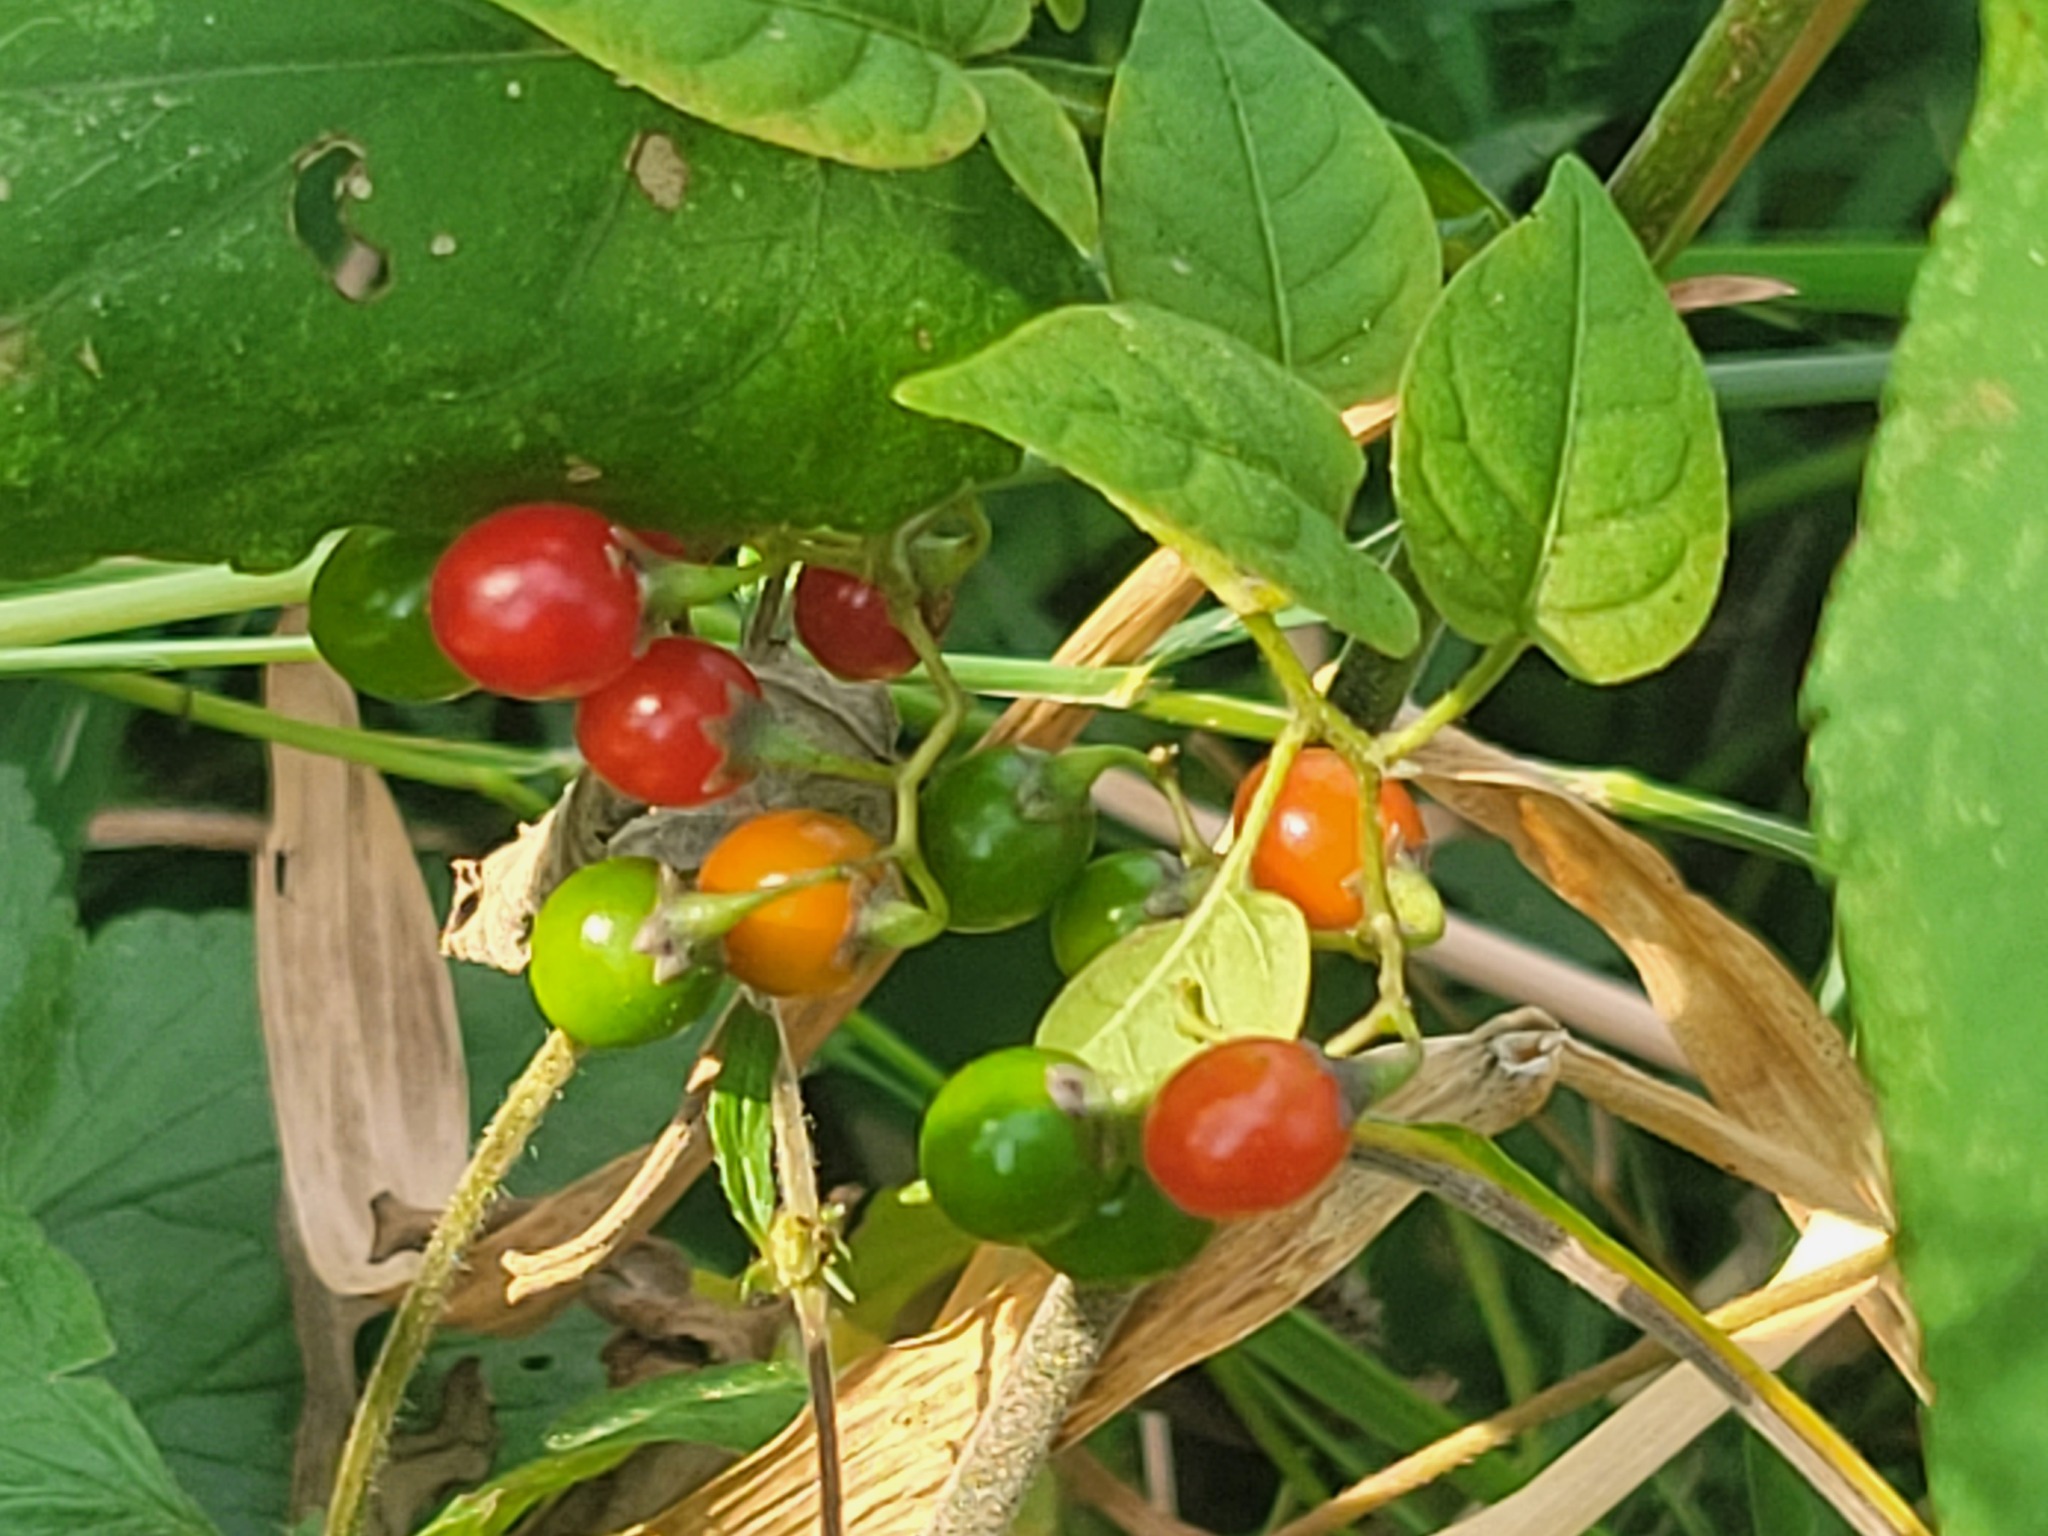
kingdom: Plantae
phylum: Tracheophyta
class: Magnoliopsida
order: Solanales
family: Solanaceae
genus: Solanum
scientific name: Solanum dulcamara
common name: Climbing nightshade
